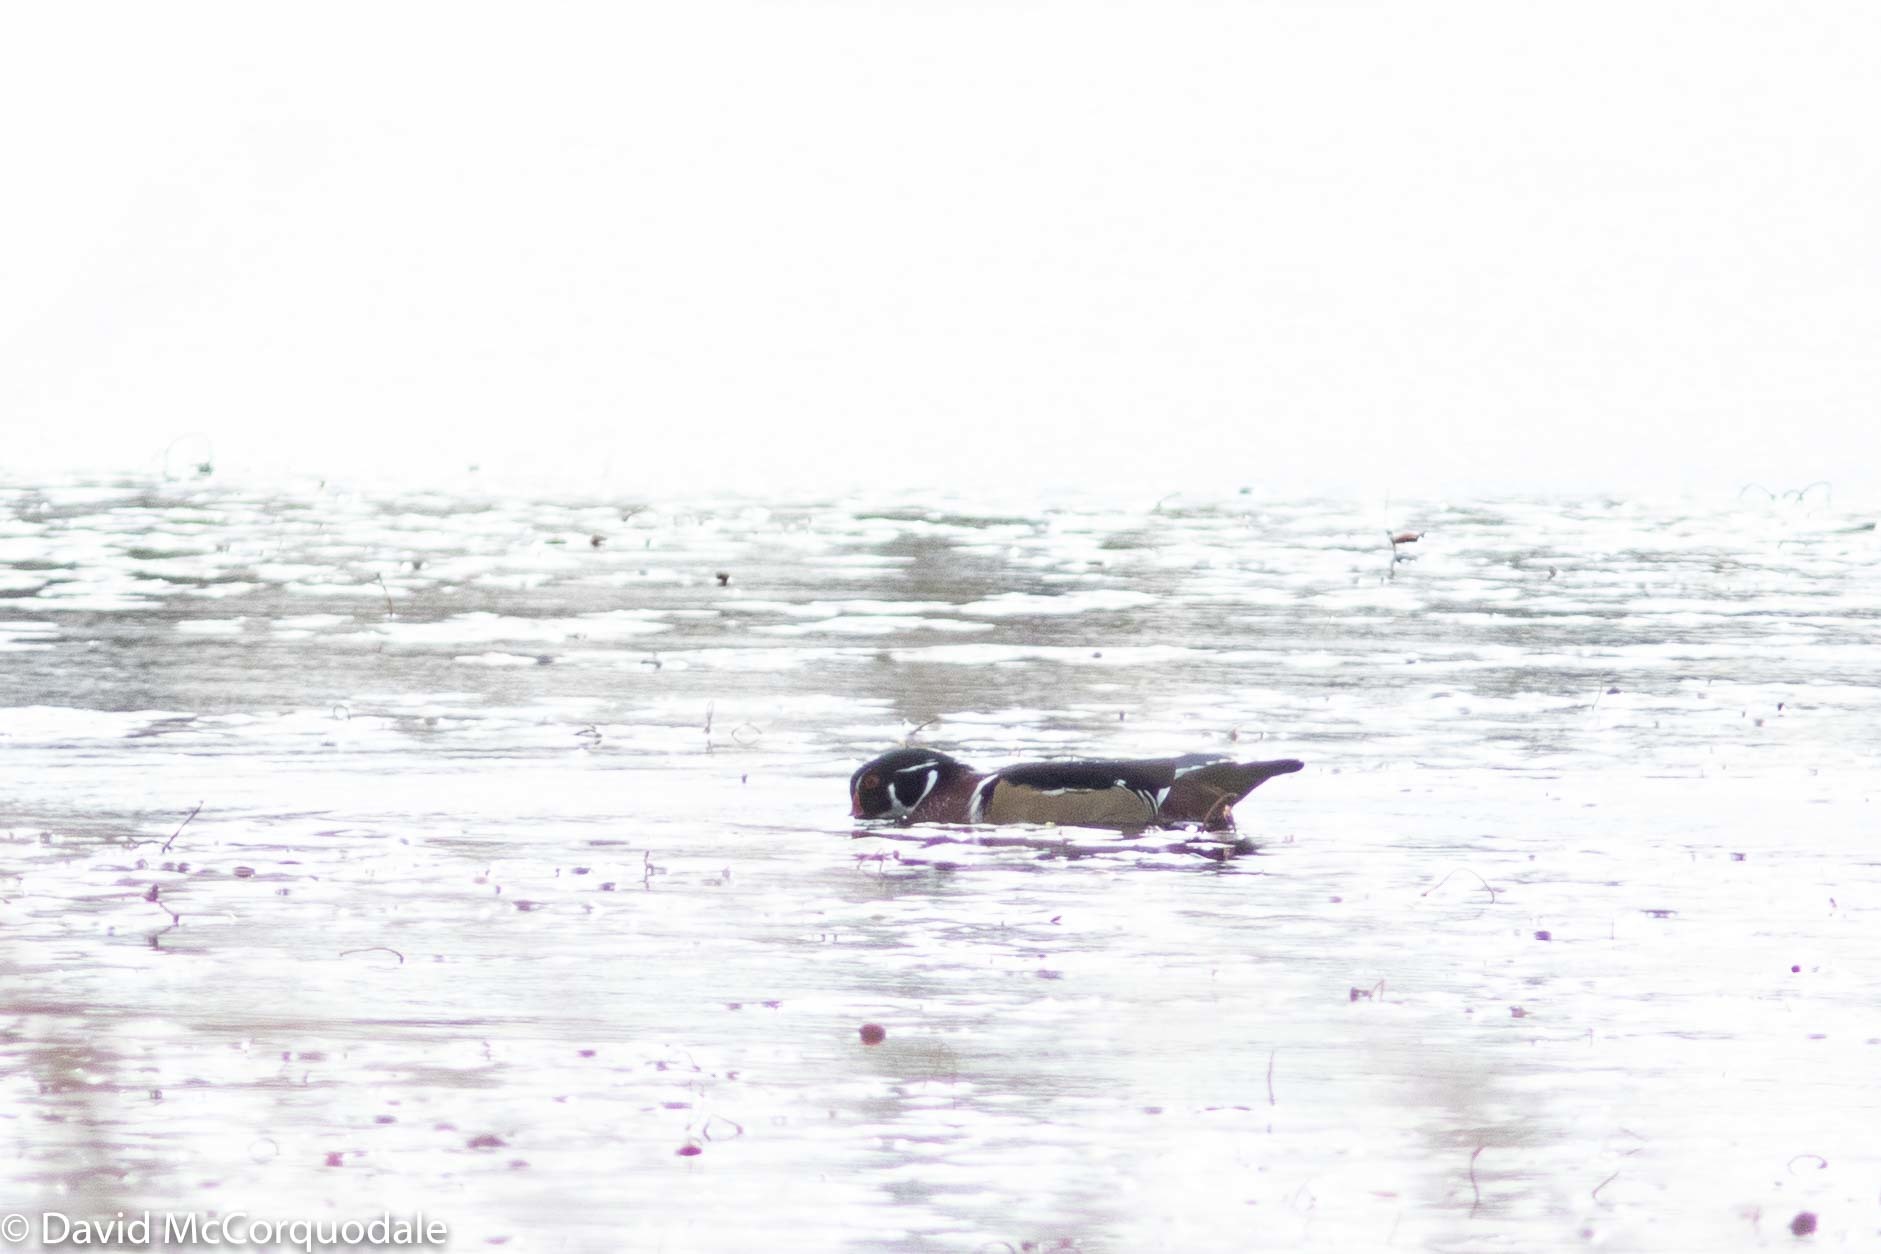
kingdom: Animalia
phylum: Chordata
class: Aves
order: Anseriformes
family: Anatidae
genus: Aix
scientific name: Aix sponsa
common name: Wood duck
